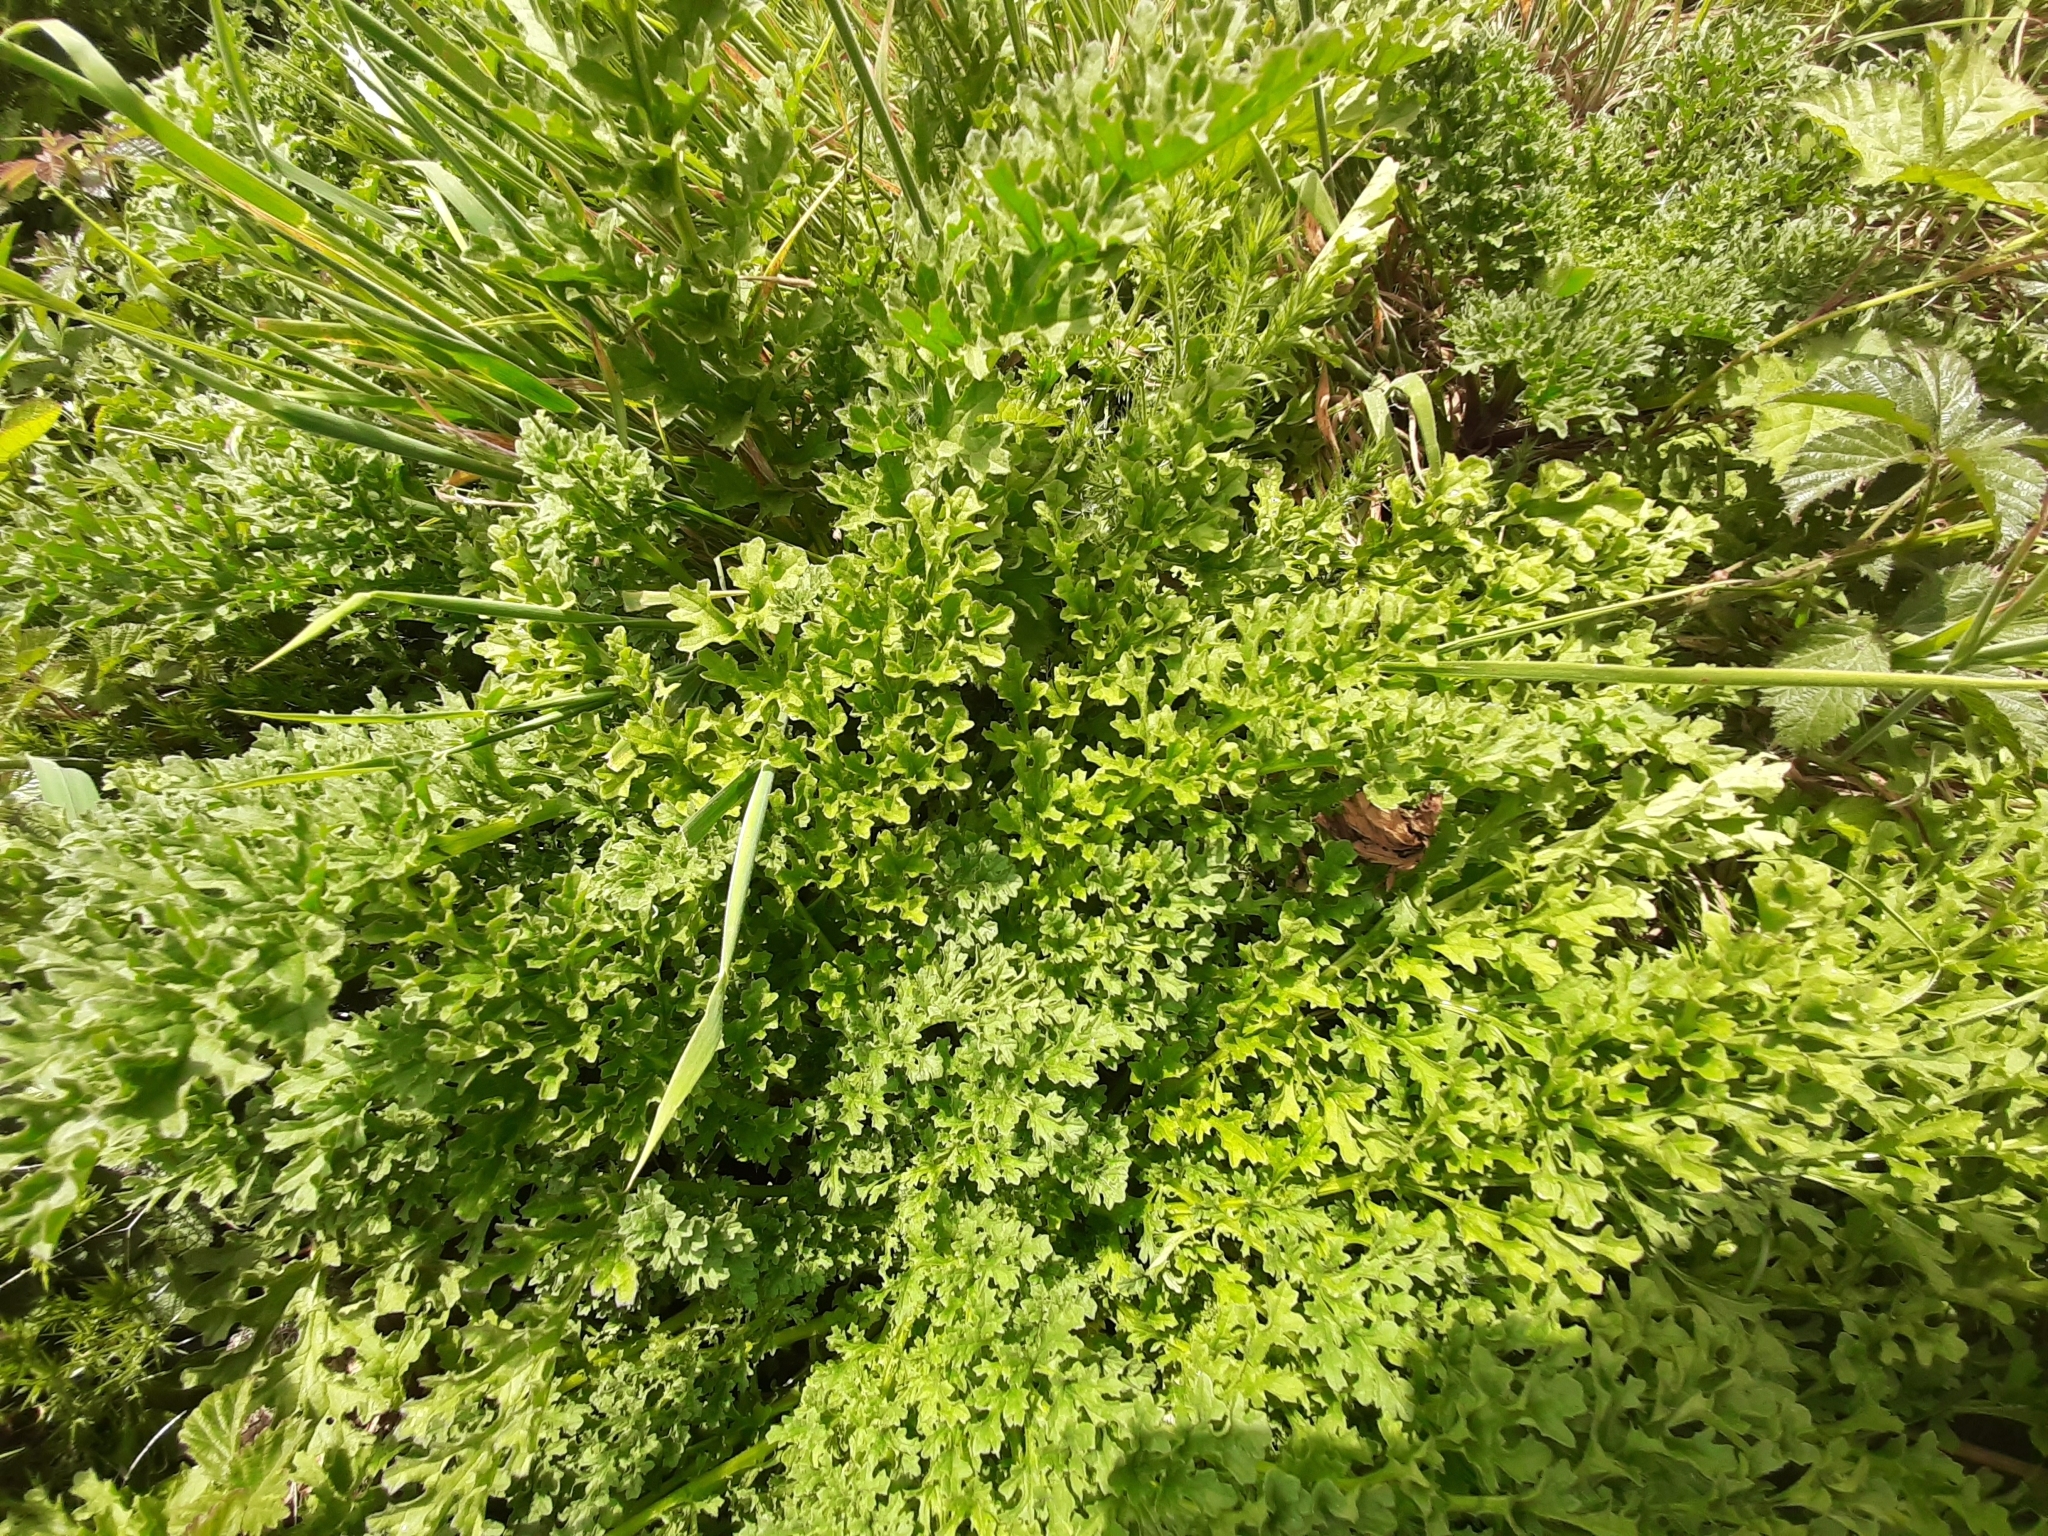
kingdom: Plantae
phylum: Tracheophyta
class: Magnoliopsida
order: Asterales
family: Asteraceae
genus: Jacobaea
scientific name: Jacobaea vulgaris
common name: Stinking willie
